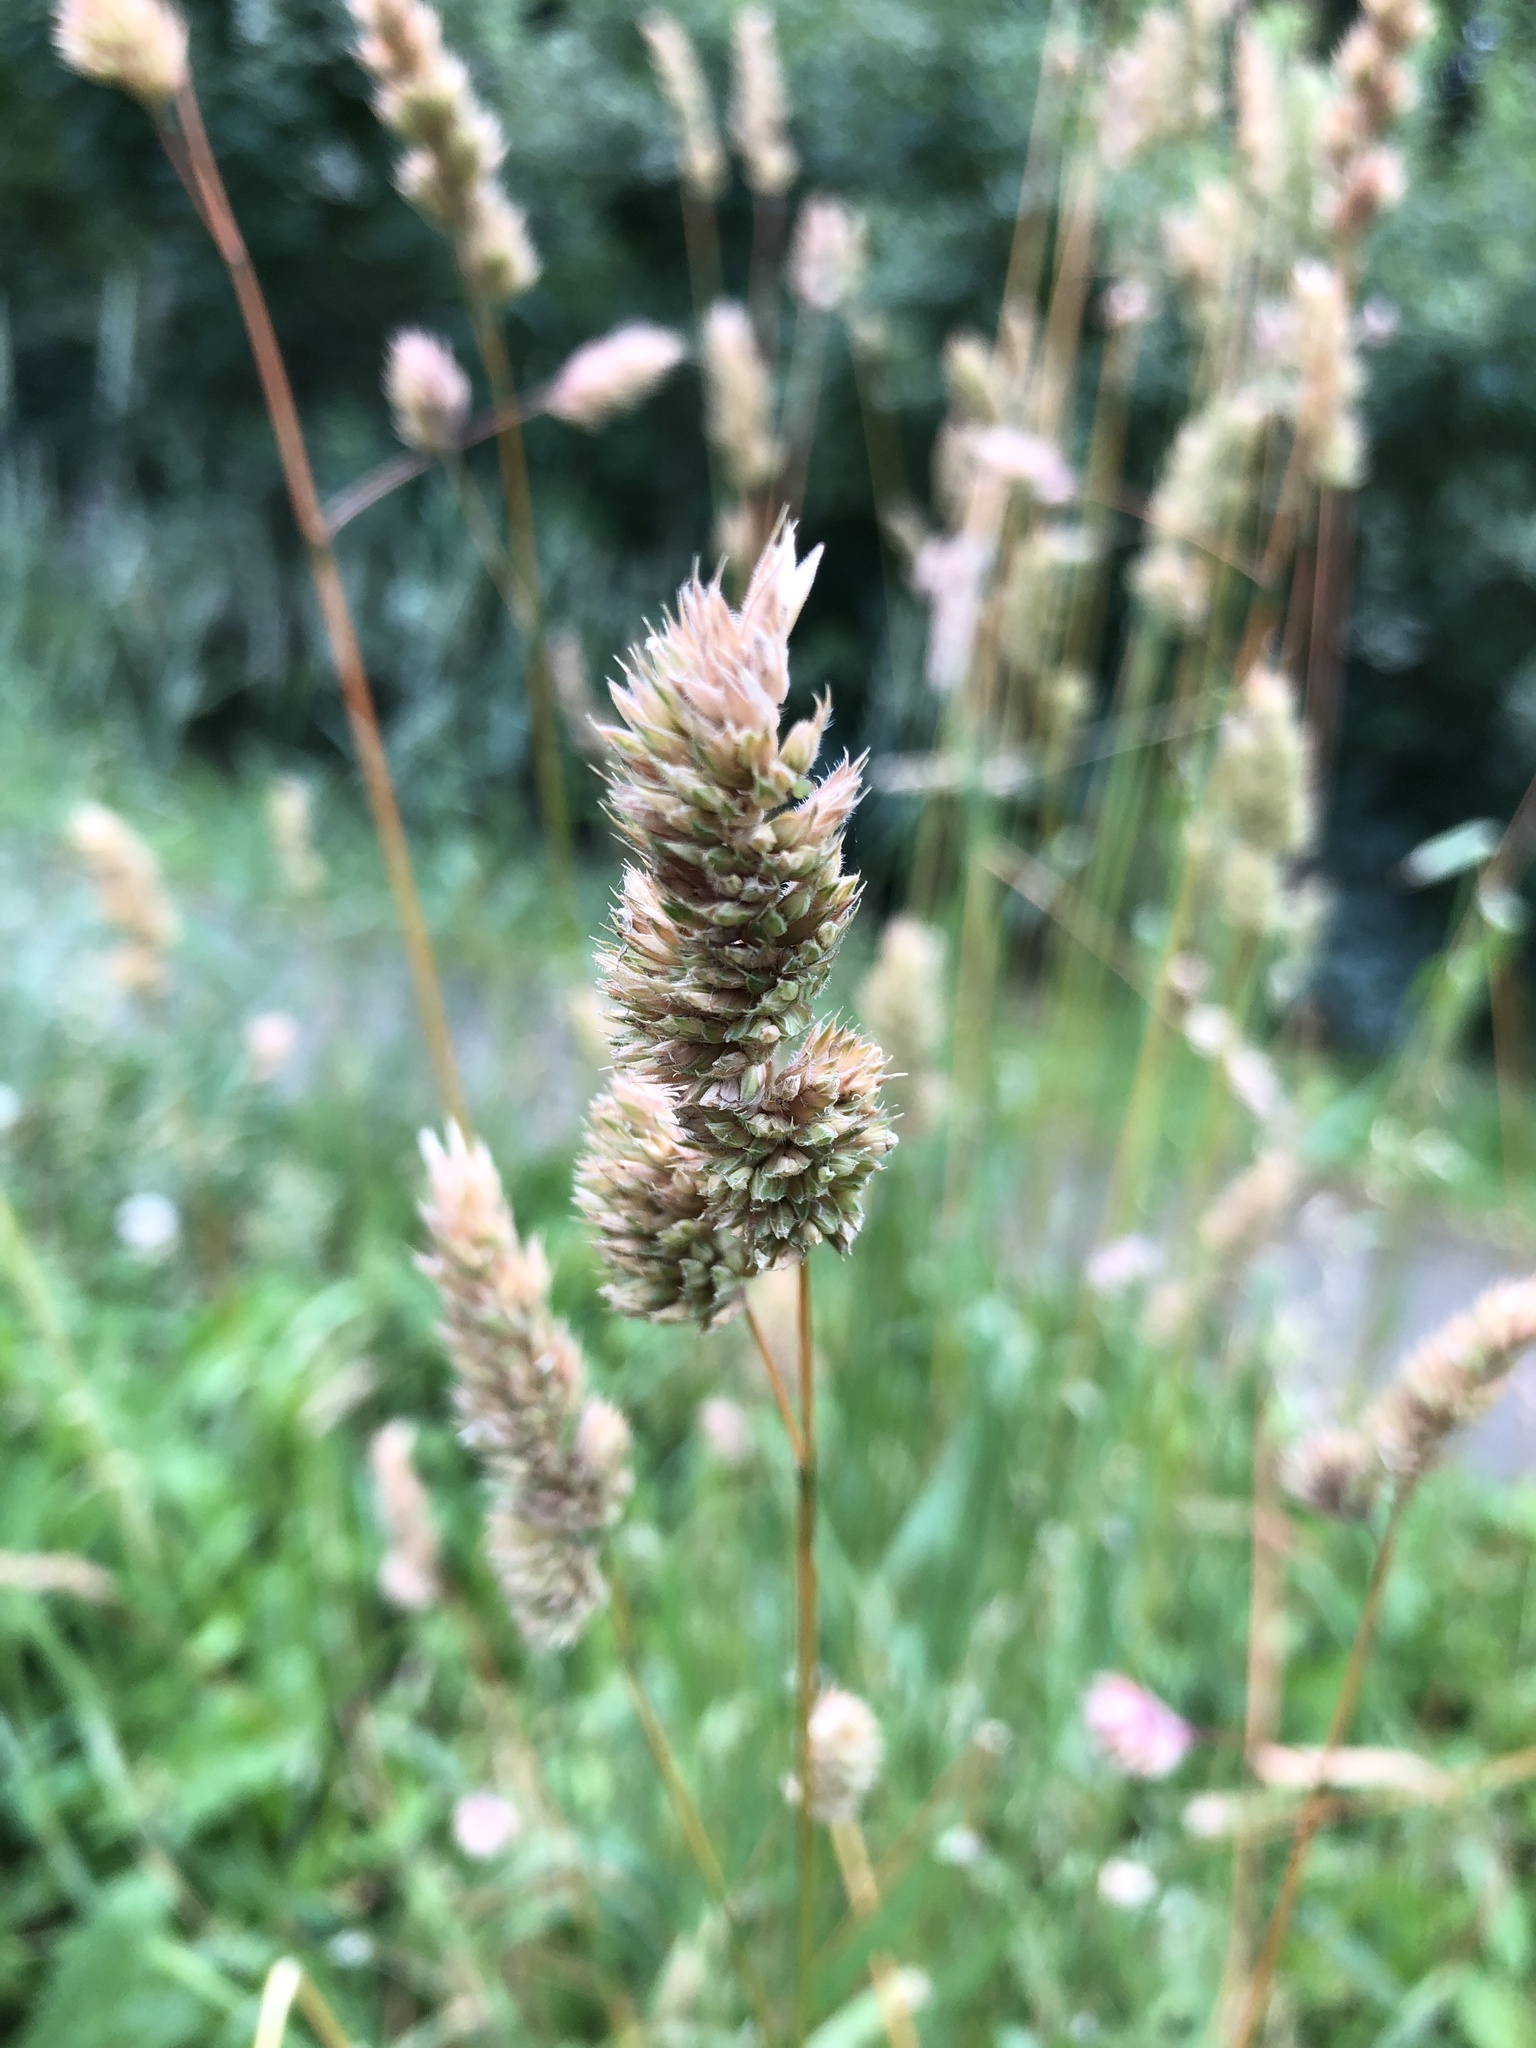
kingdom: Plantae
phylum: Tracheophyta
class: Liliopsida
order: Poales
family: Poaceae
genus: Dactylis
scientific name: Dactylis glomerata
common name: Orchardgrass
